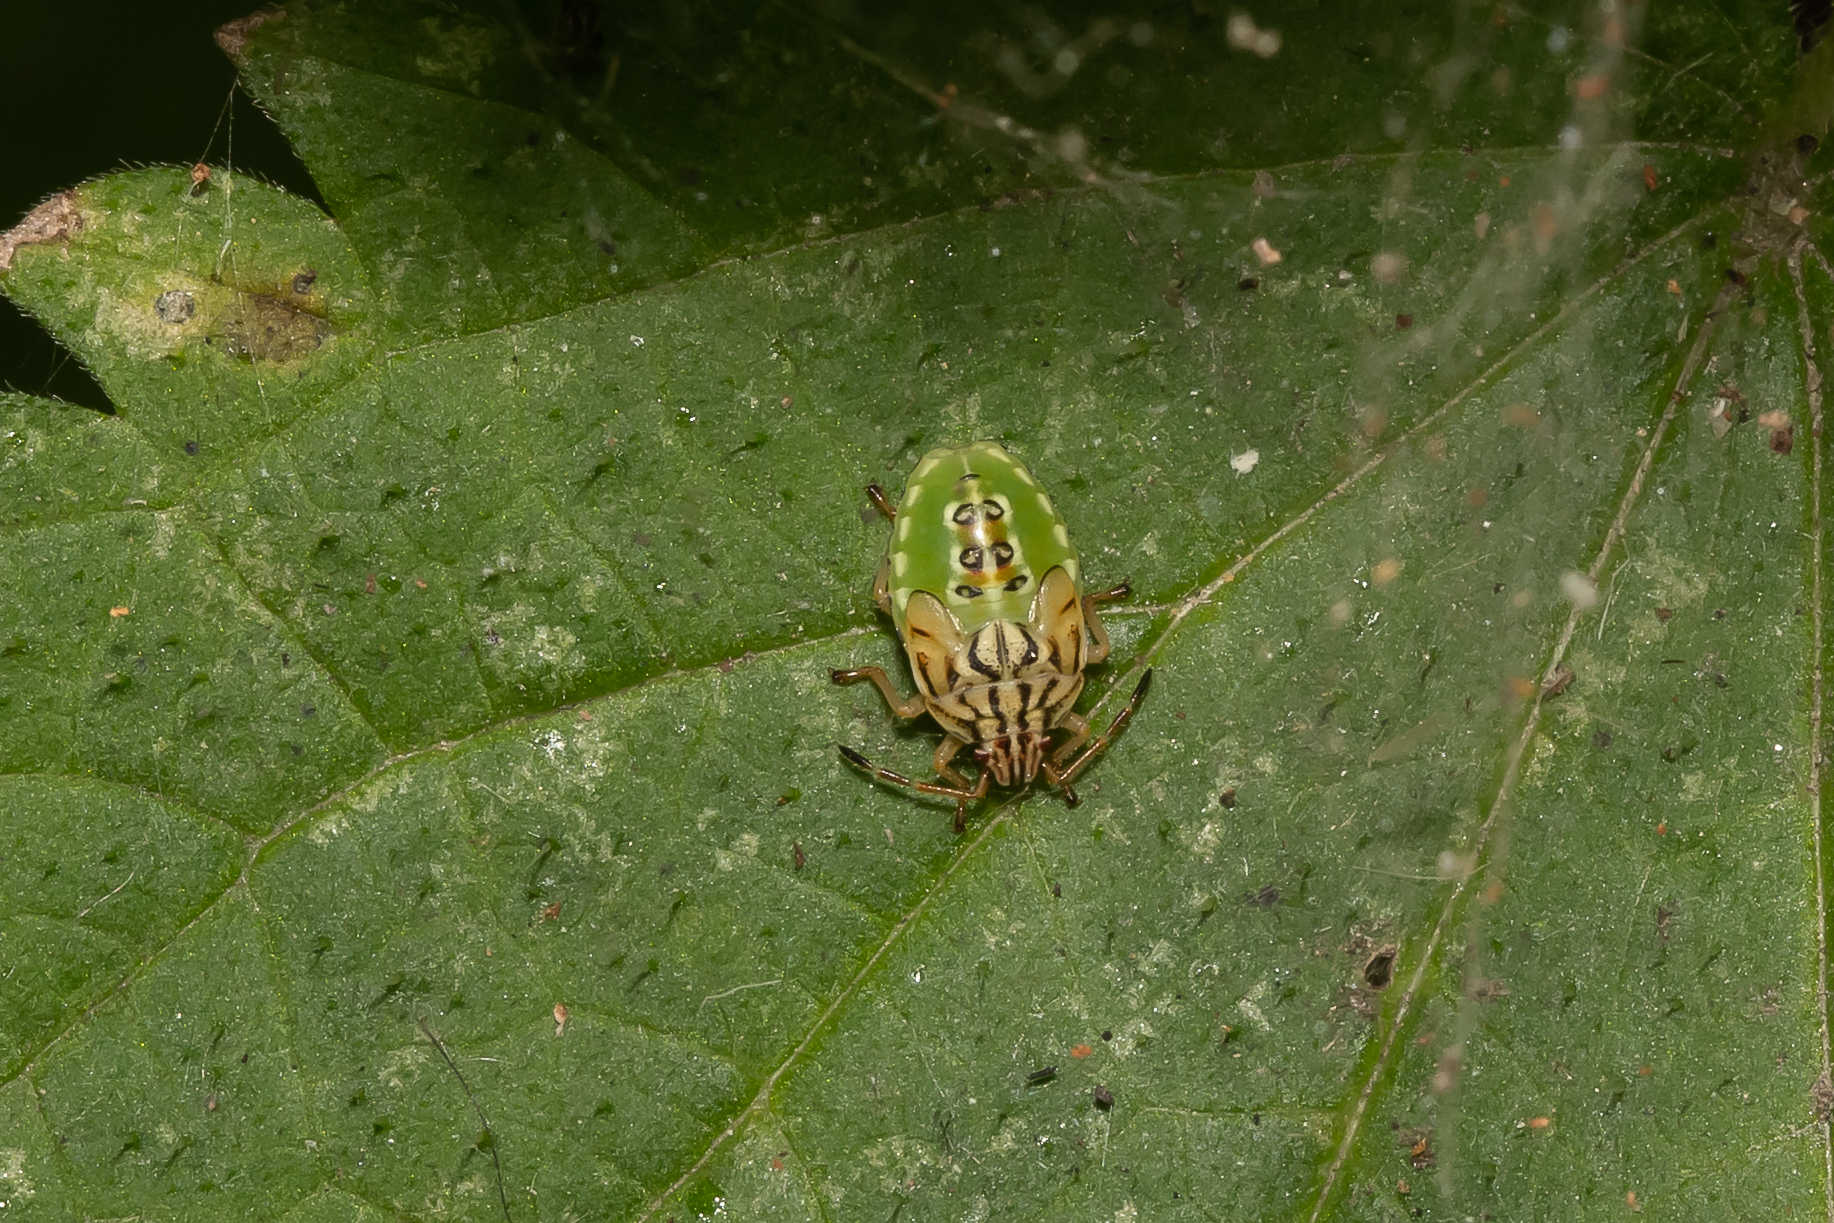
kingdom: Animalia
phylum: Arthropoda
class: Insecta
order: Hemiptera
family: Acanthosomatidae
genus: Elasmucha
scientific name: Elasmucha grisea
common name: Parent bug
